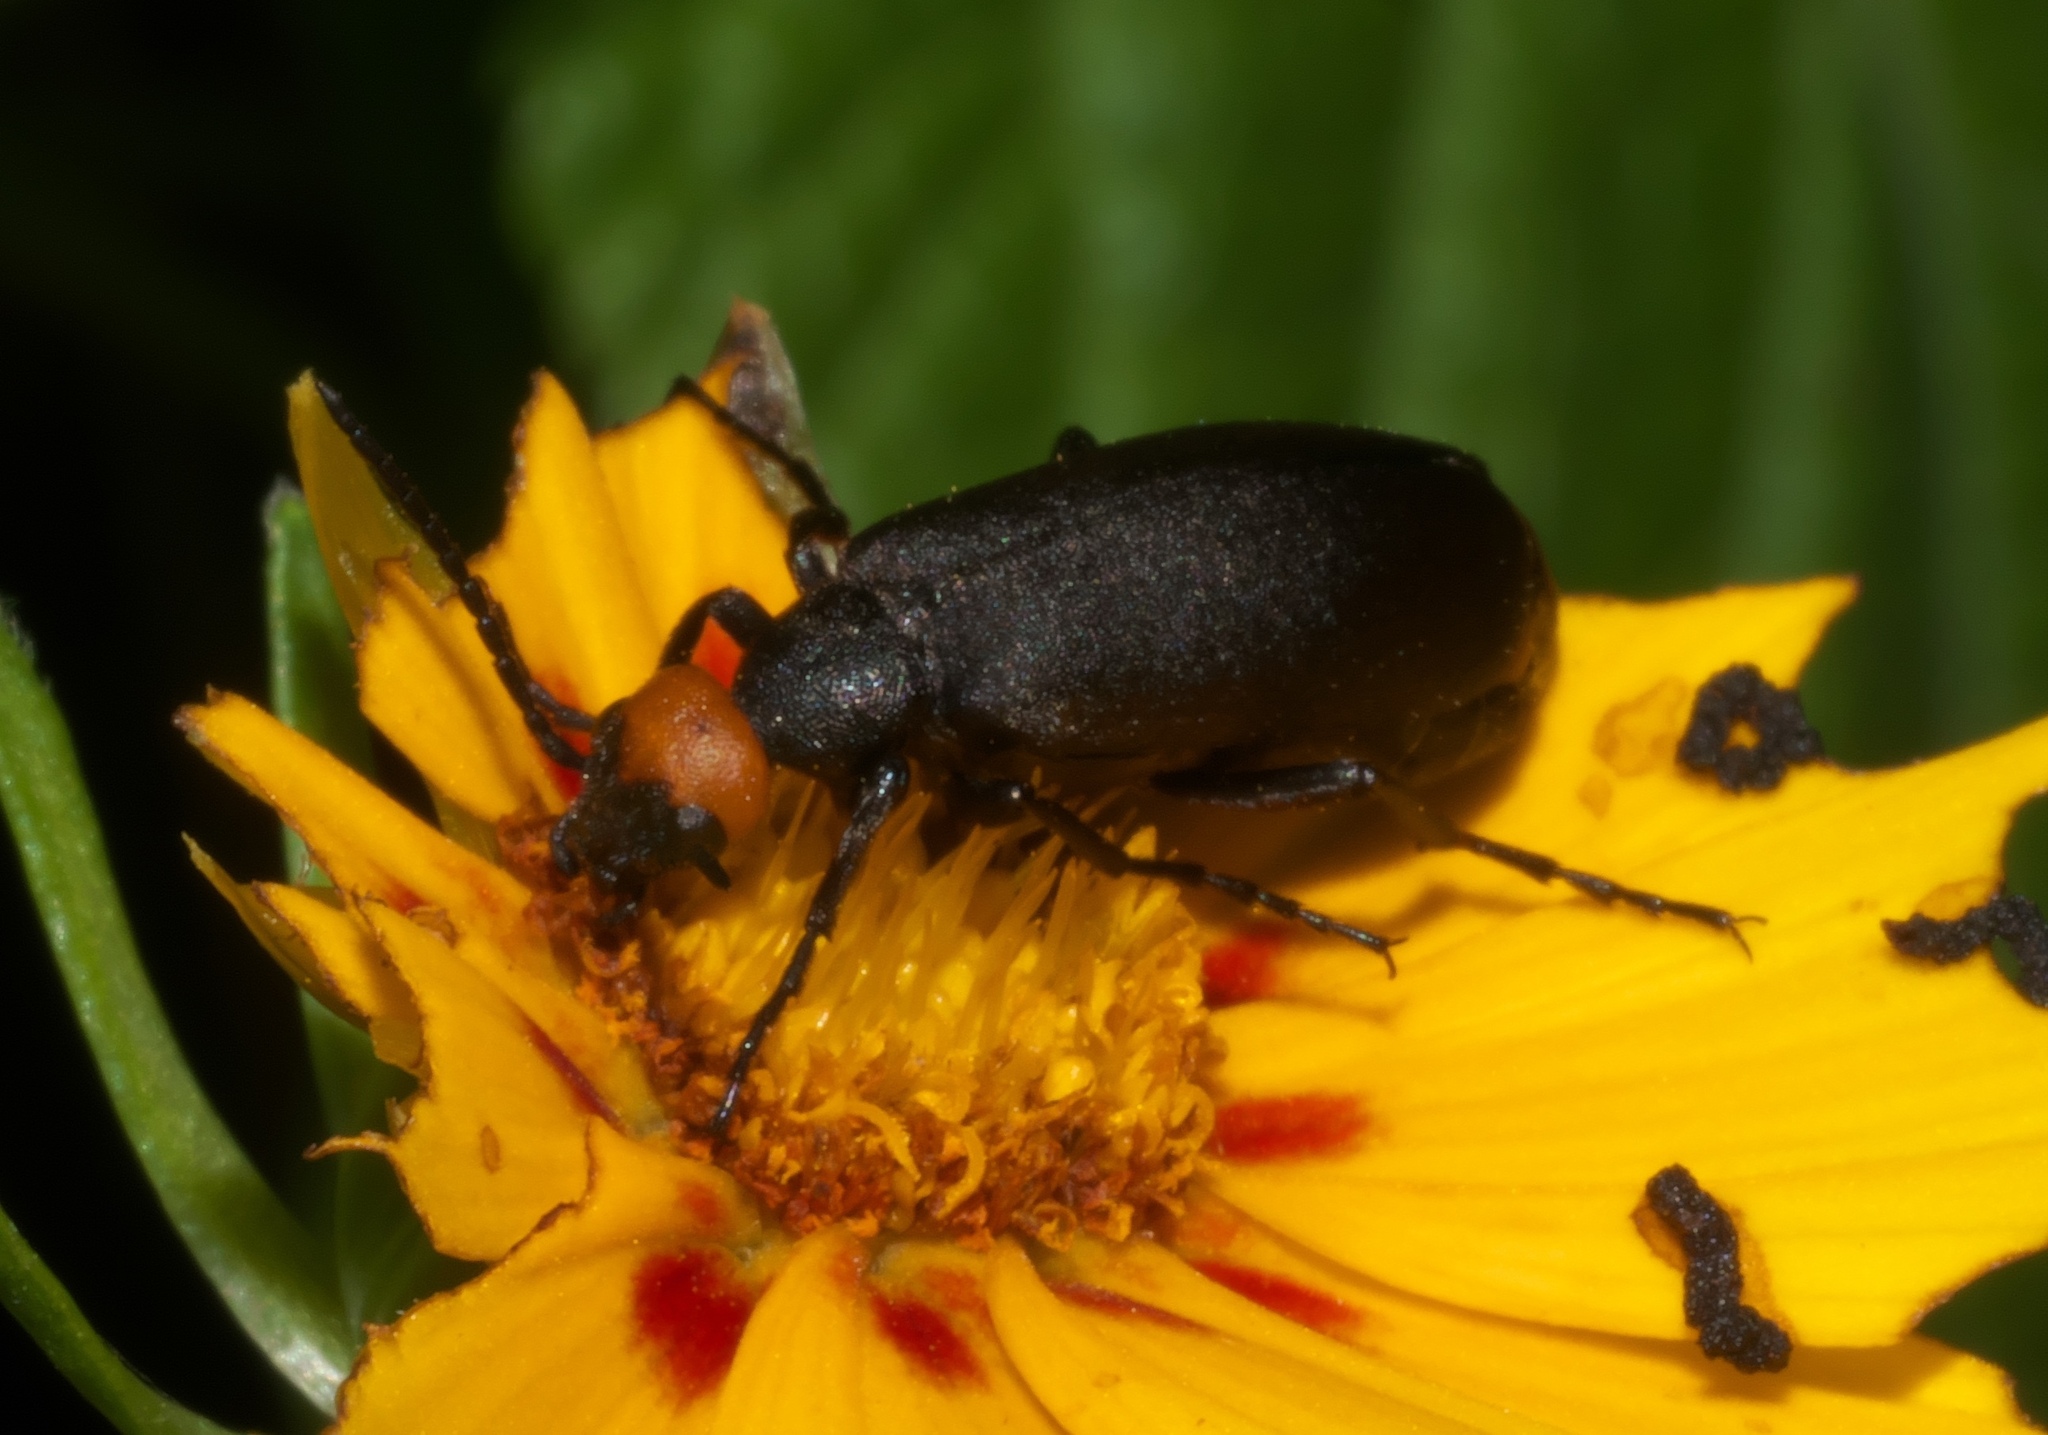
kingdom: Animalia
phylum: Arthropoda
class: Insecta
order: Coleoptera
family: Meloidae
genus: Epicauta
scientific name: Epicauta atrata
